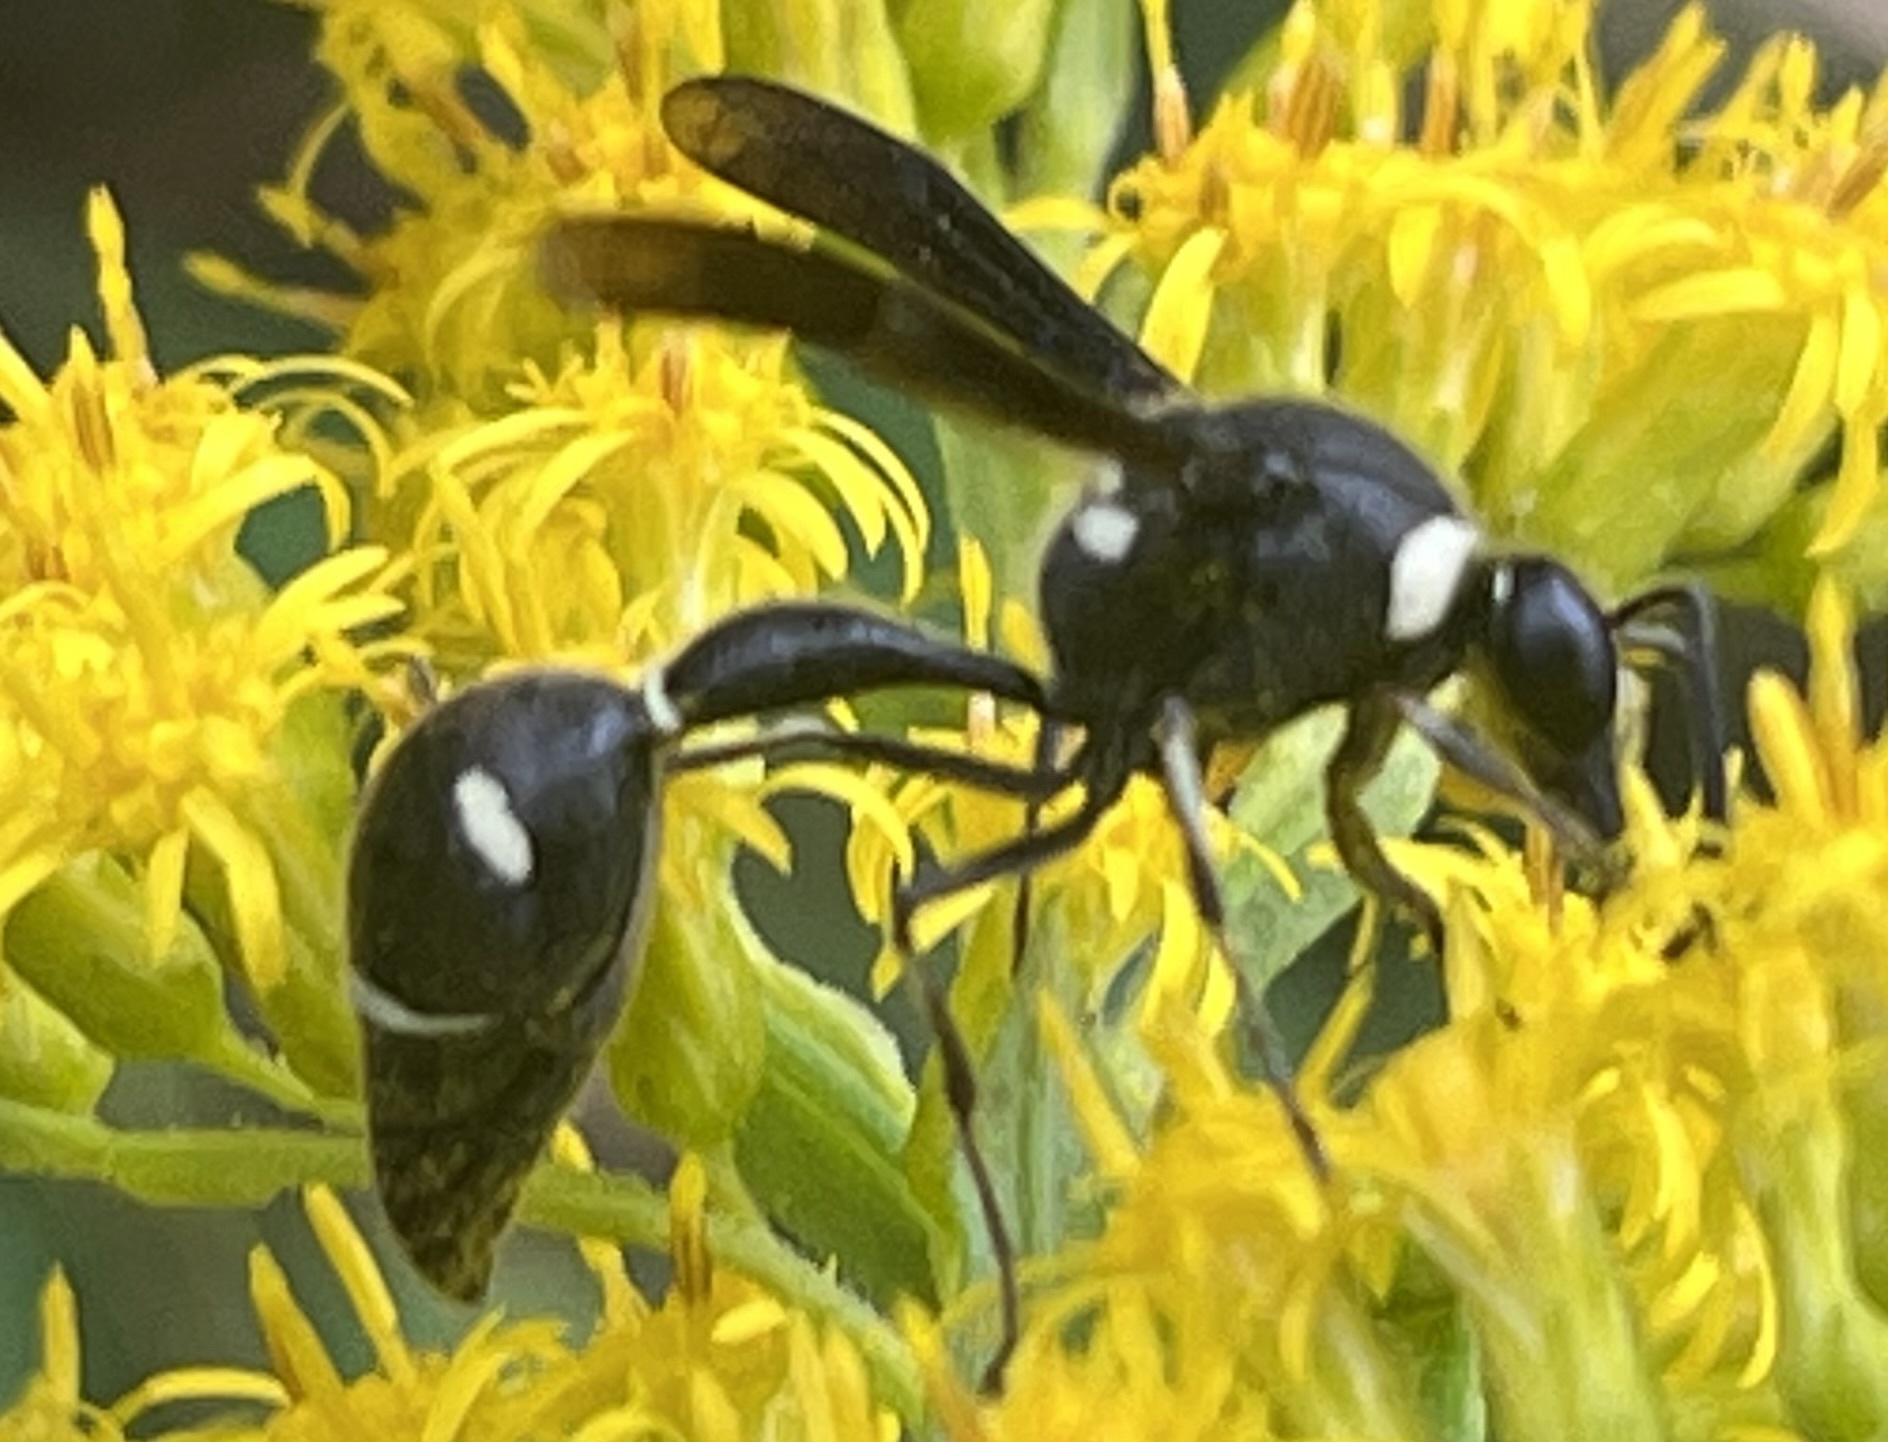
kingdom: Animalia
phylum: Arthropoda
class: Insecta
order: Hymenoptera
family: Vespidae
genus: Eumenes
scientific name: Eumenes fraternus
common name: Fraternal potter wasp
